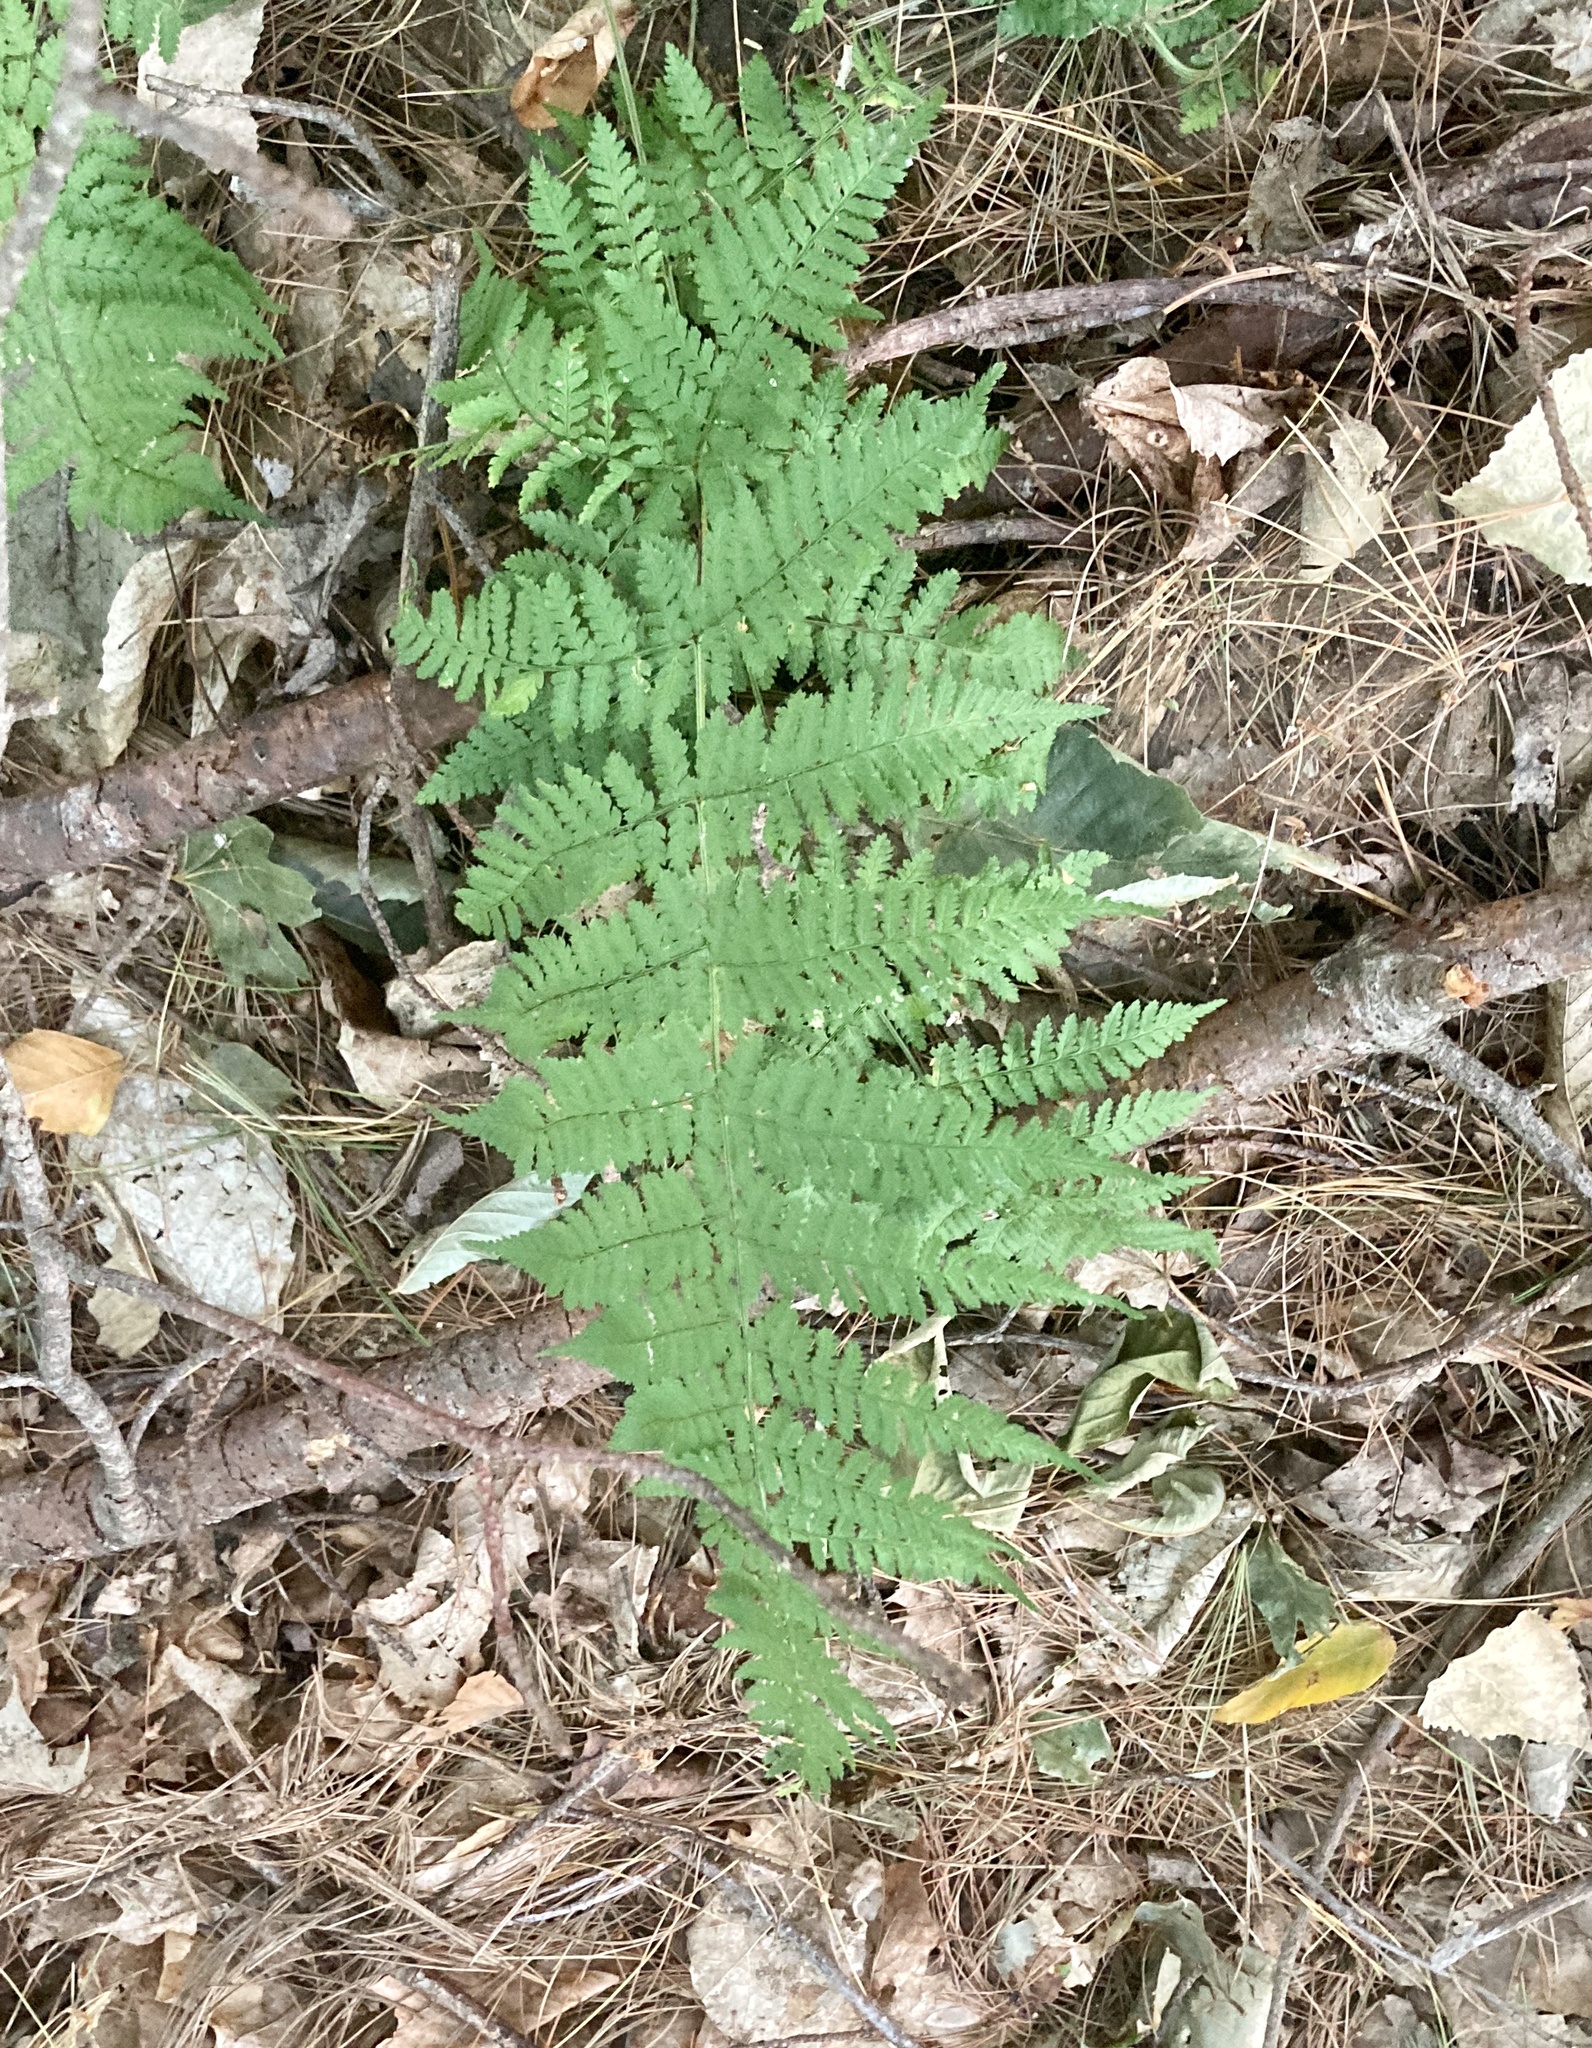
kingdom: Plantae
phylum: Tracheophyta
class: Polypodiopsida
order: Polypodiales
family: Dryopteridaceae
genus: Dryopteris
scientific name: Dryopteris intermedia
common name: Evergreen wood fern
